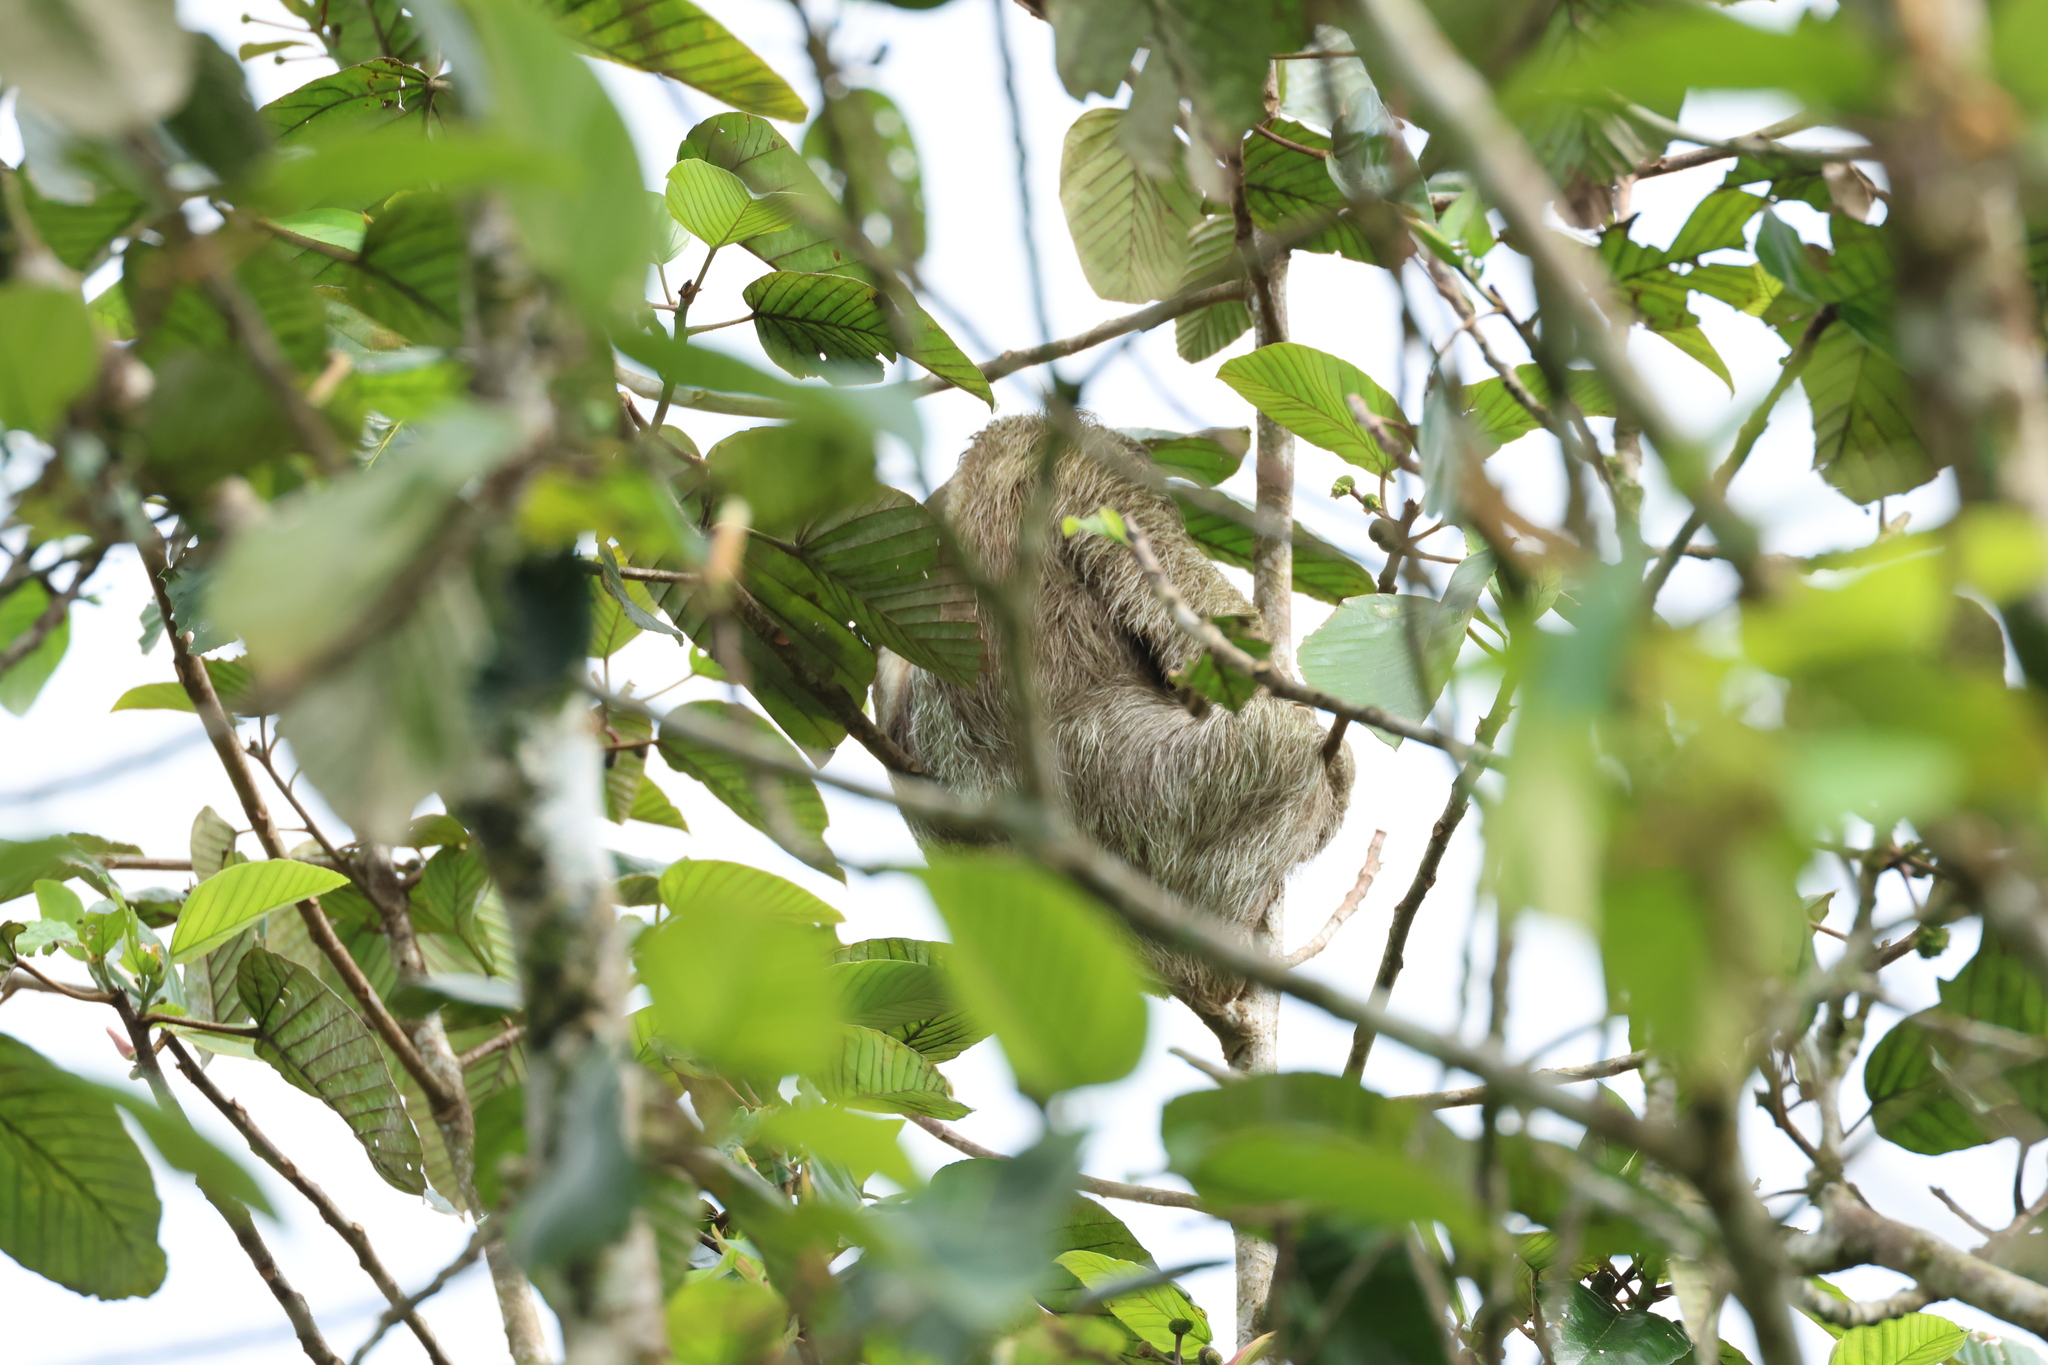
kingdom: Animalia
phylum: Chordata
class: Mammalia
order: Pilosa
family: Bradypodidae
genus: Bradypus
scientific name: Bradypus variegatus
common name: Brown-throated three-toed sloth
